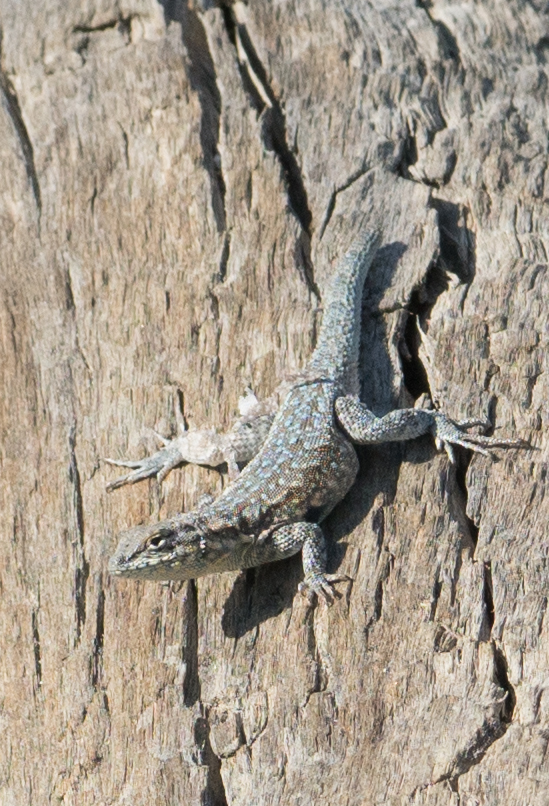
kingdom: Animalia
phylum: Chordata
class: Squamata
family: Phrynosomatidae
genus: Uta
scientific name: Uta stansburiana
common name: Side-blotched lizard
